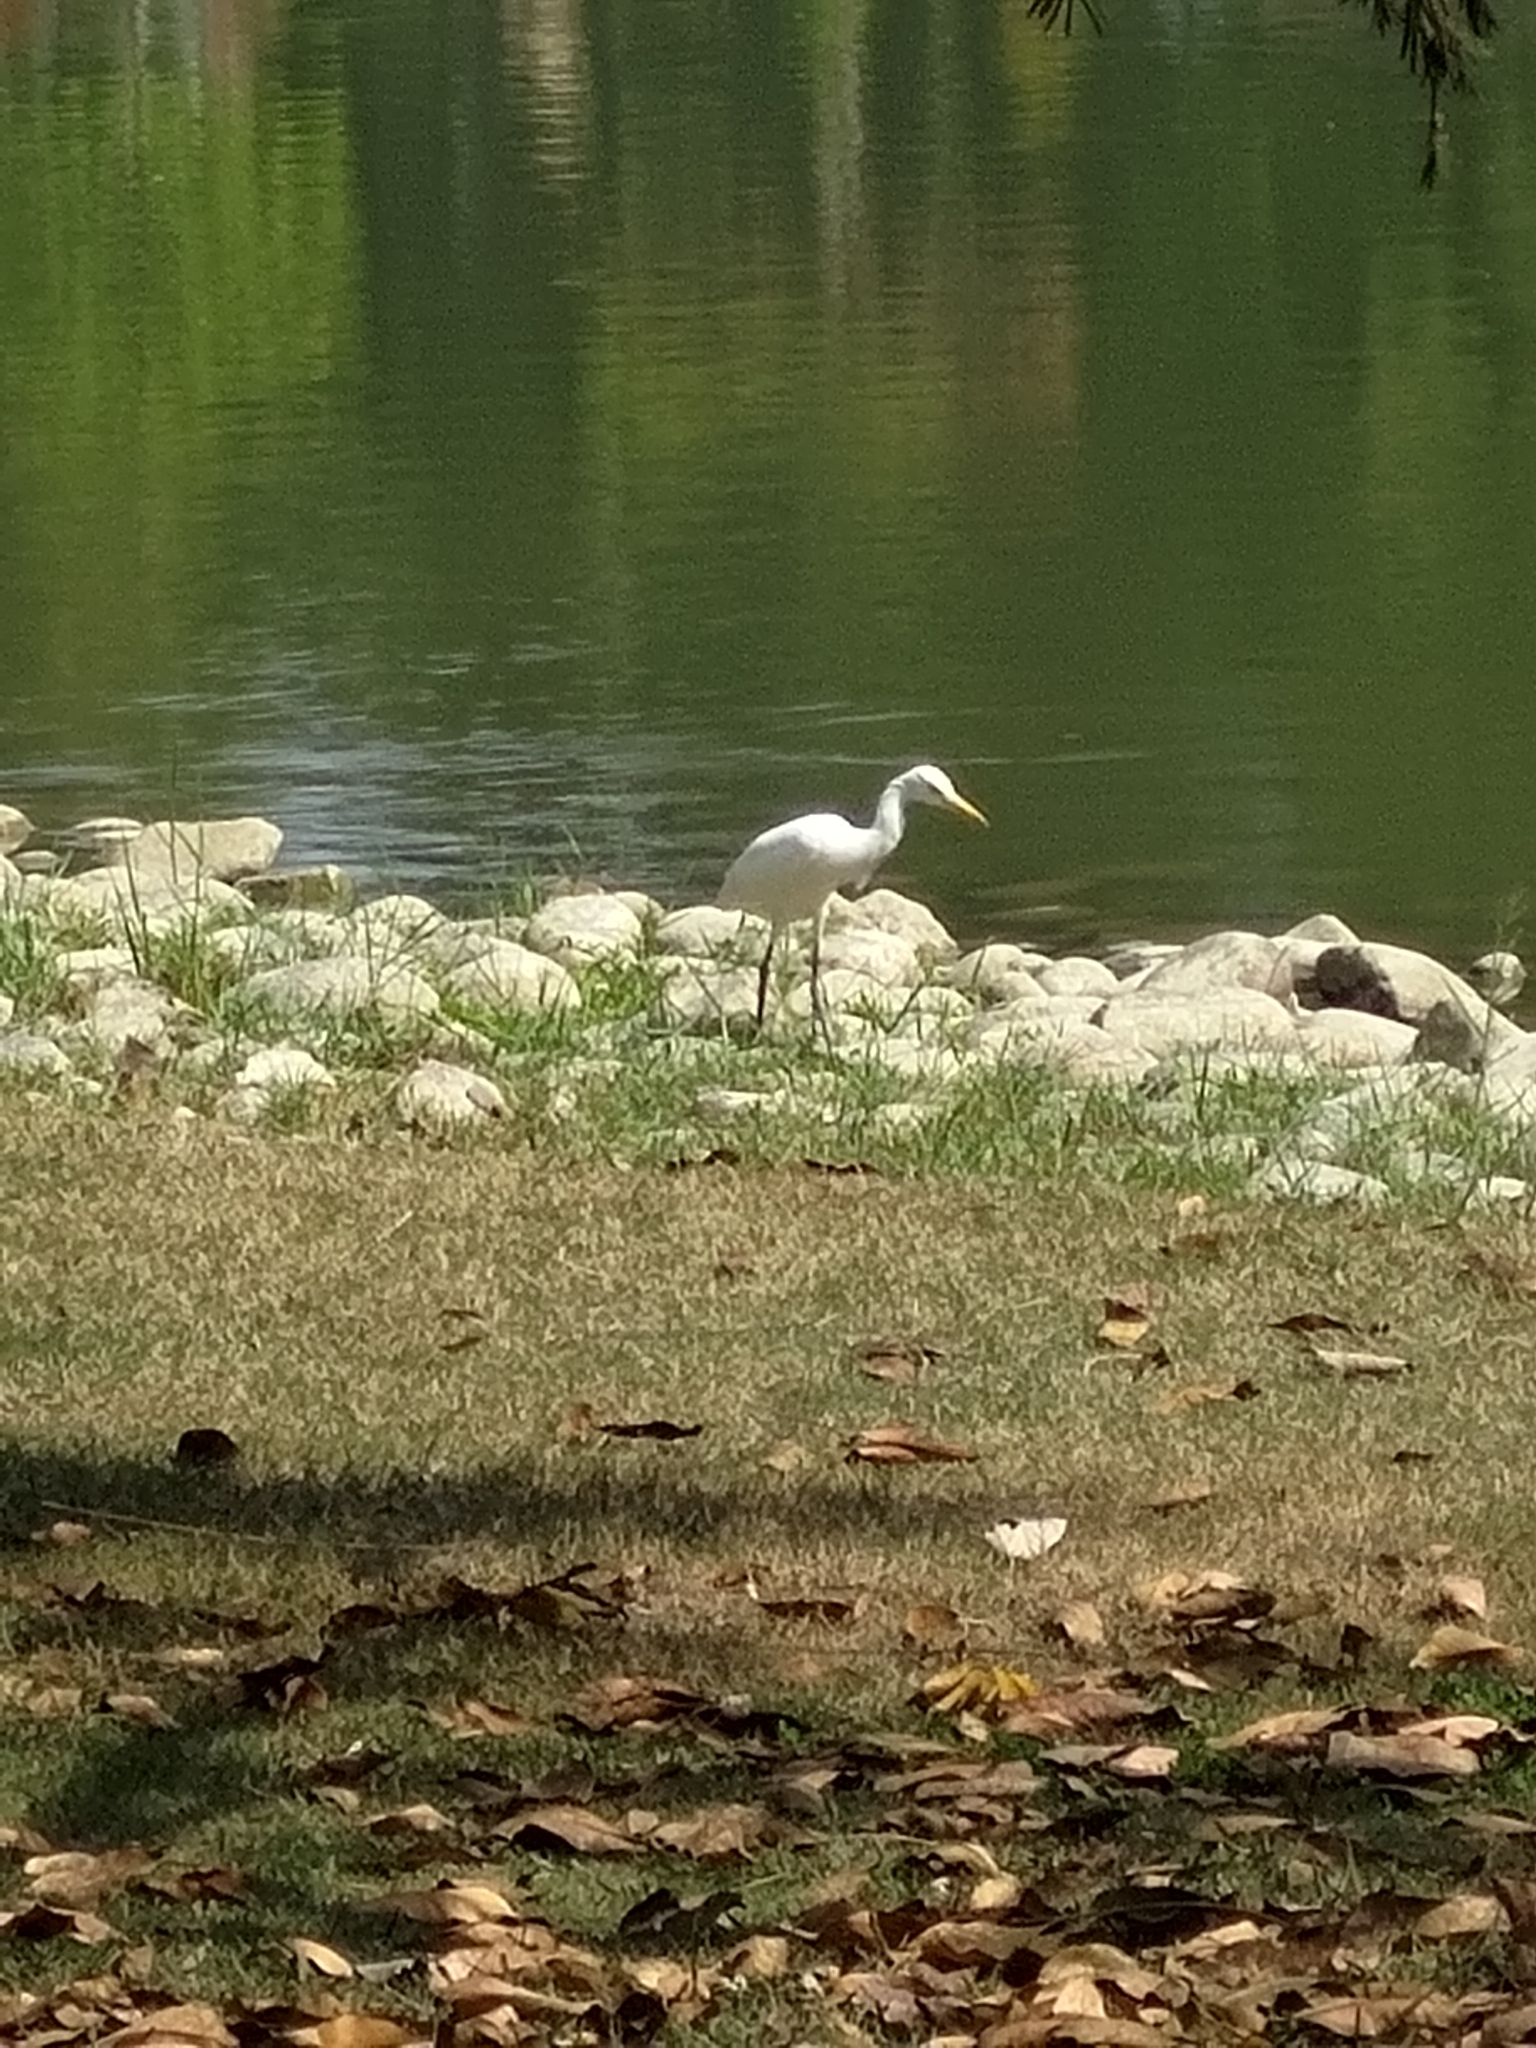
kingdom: Animalia
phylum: Chordata
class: Aves
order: Pelecaniformes
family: Ardeidae
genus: Bubulcus
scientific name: Bubulcus coromandus
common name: Eastern cattle egret
